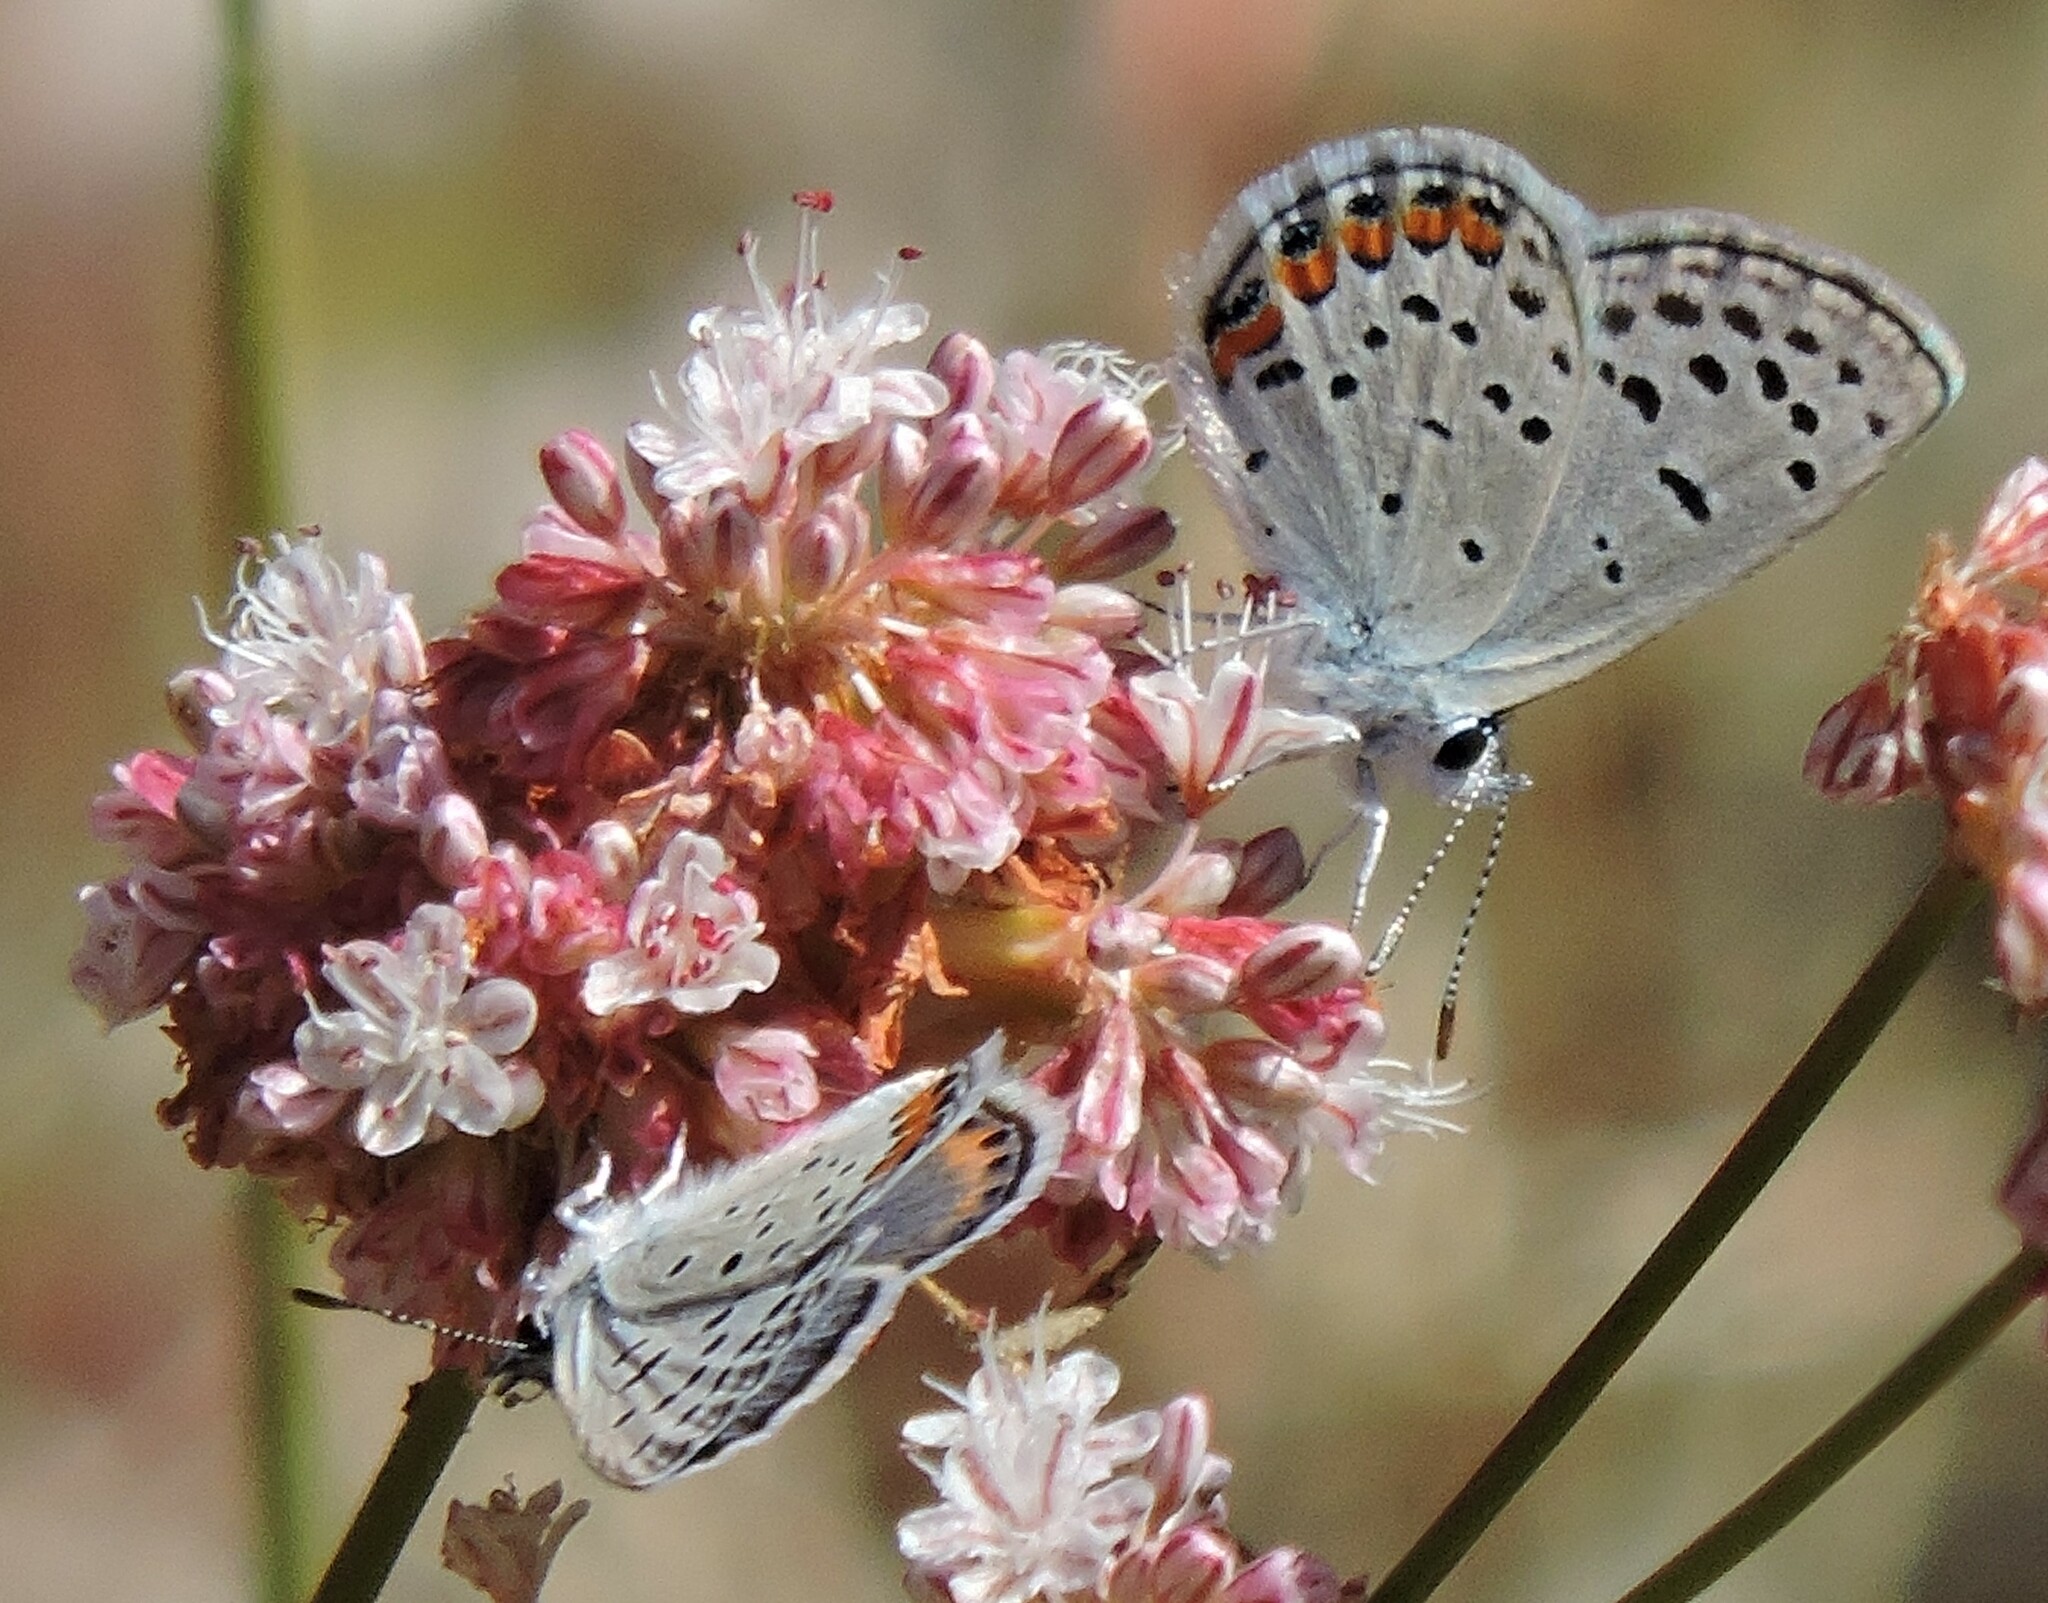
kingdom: Animalia
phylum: Arthropoda
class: Insecta
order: Lepidoptera
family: Lycaenidae
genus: Icaricia
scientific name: Icaricia acmon
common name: Acmon blue
